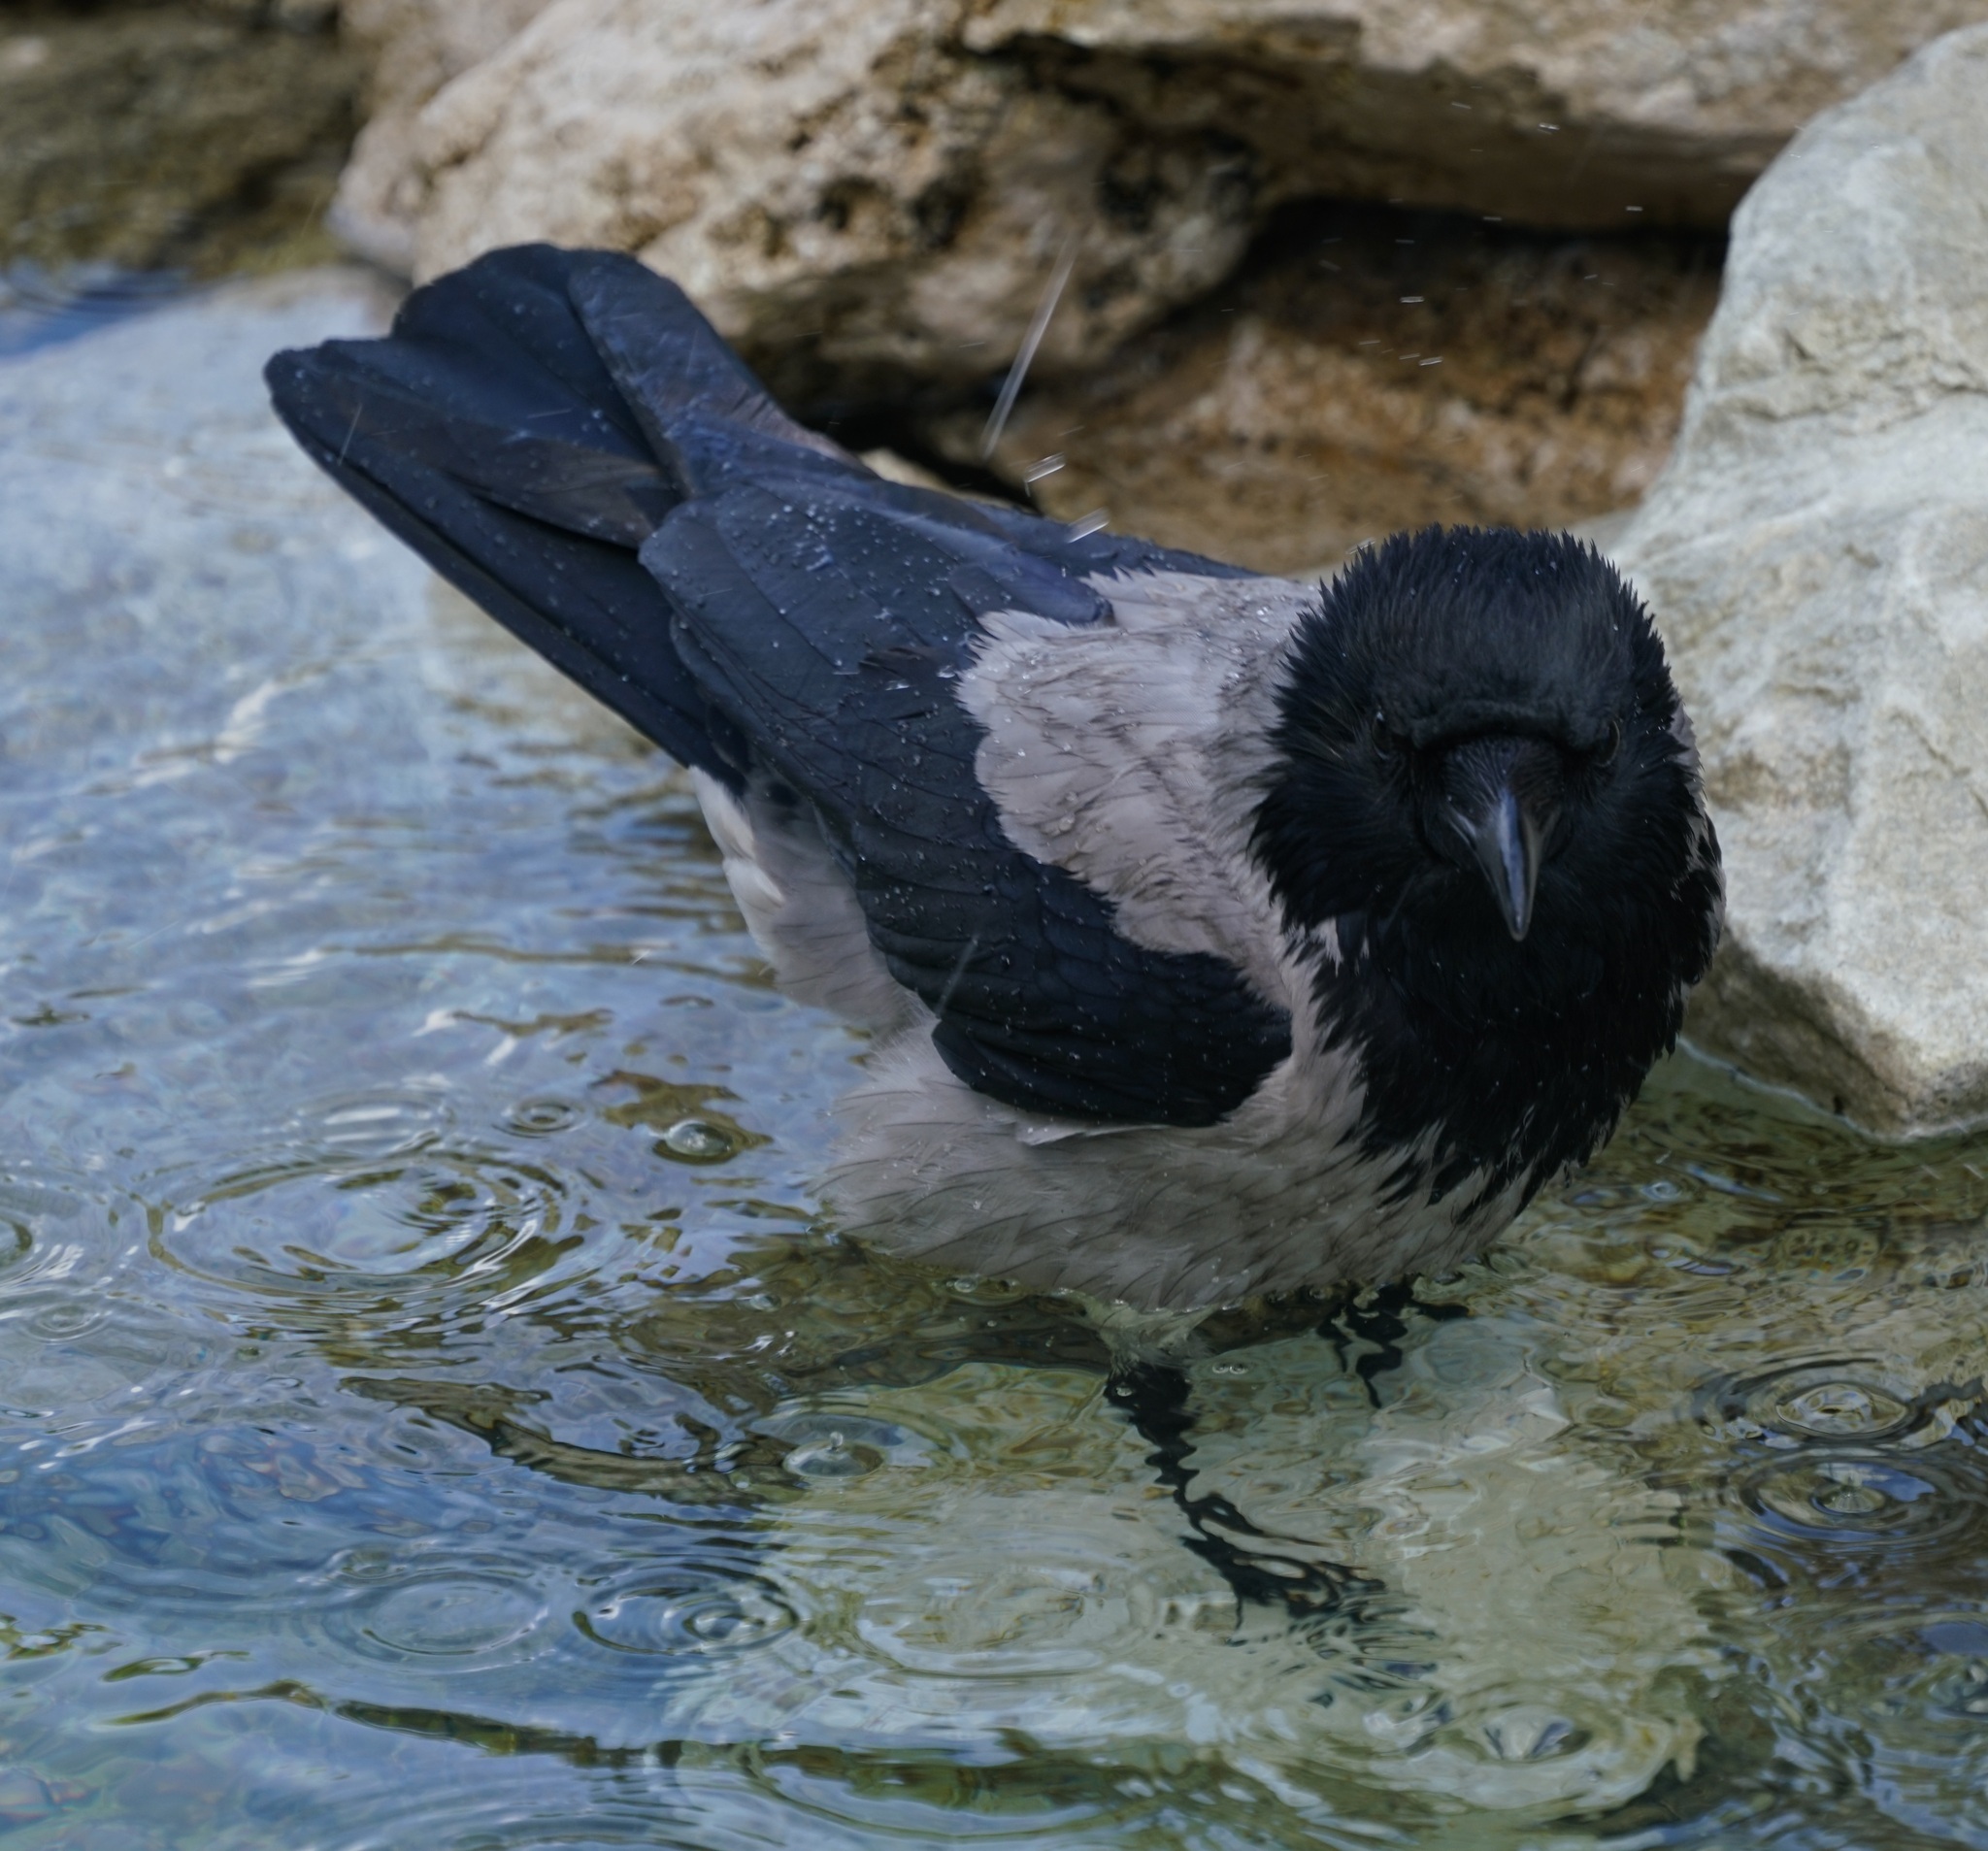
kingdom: Animalia
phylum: Chordata
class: Aves
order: Passeriformes
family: Corvidae
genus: Corvus
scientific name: Corvus cornix
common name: Hooded crow
